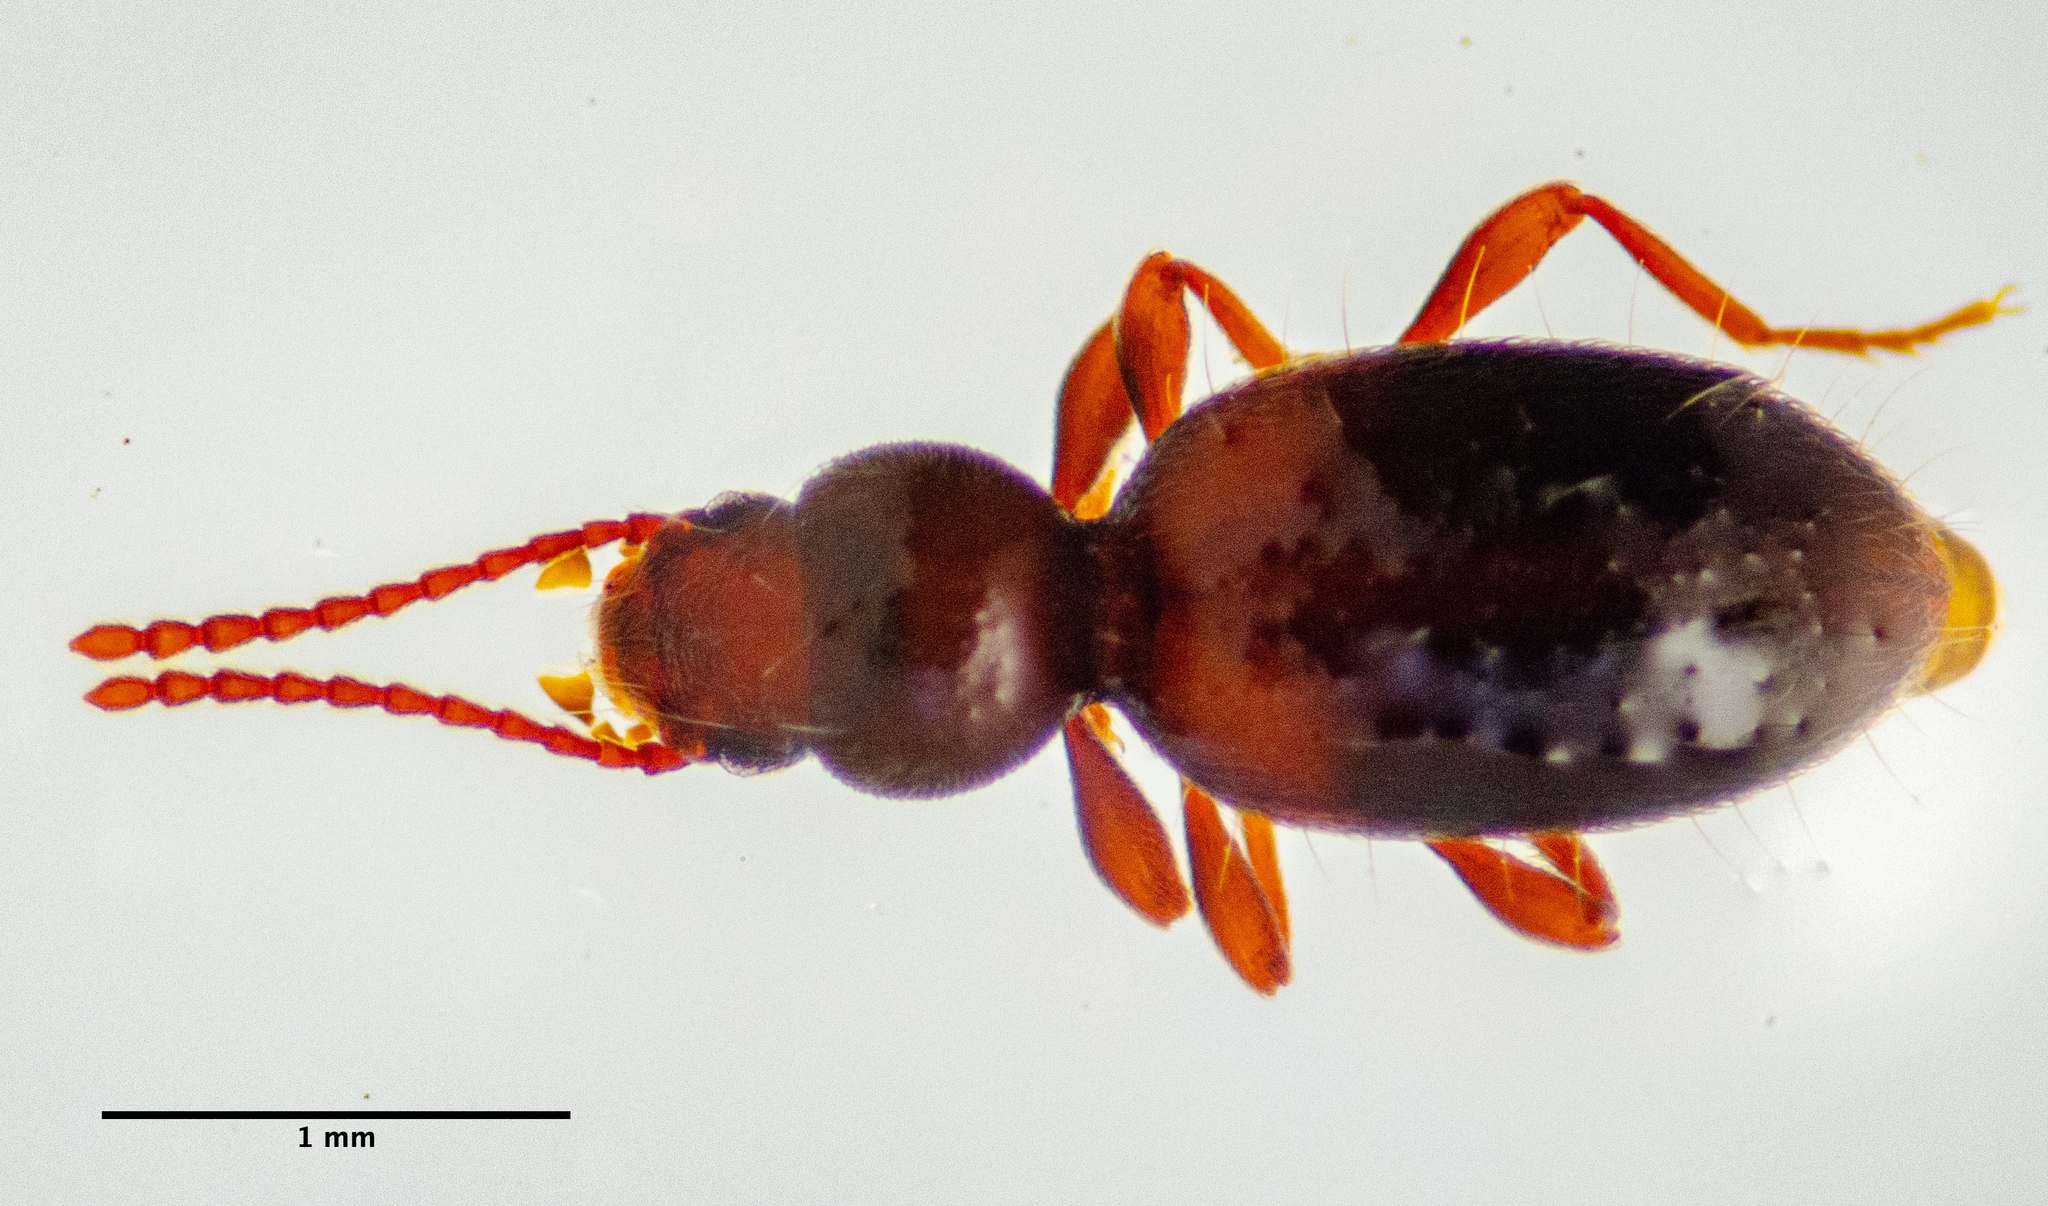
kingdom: Animalia
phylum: Arthropoda
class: Insecta
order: Coleoptera
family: Tenebrionidae
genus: Apocrypha
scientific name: Apocrypha anthicoides
